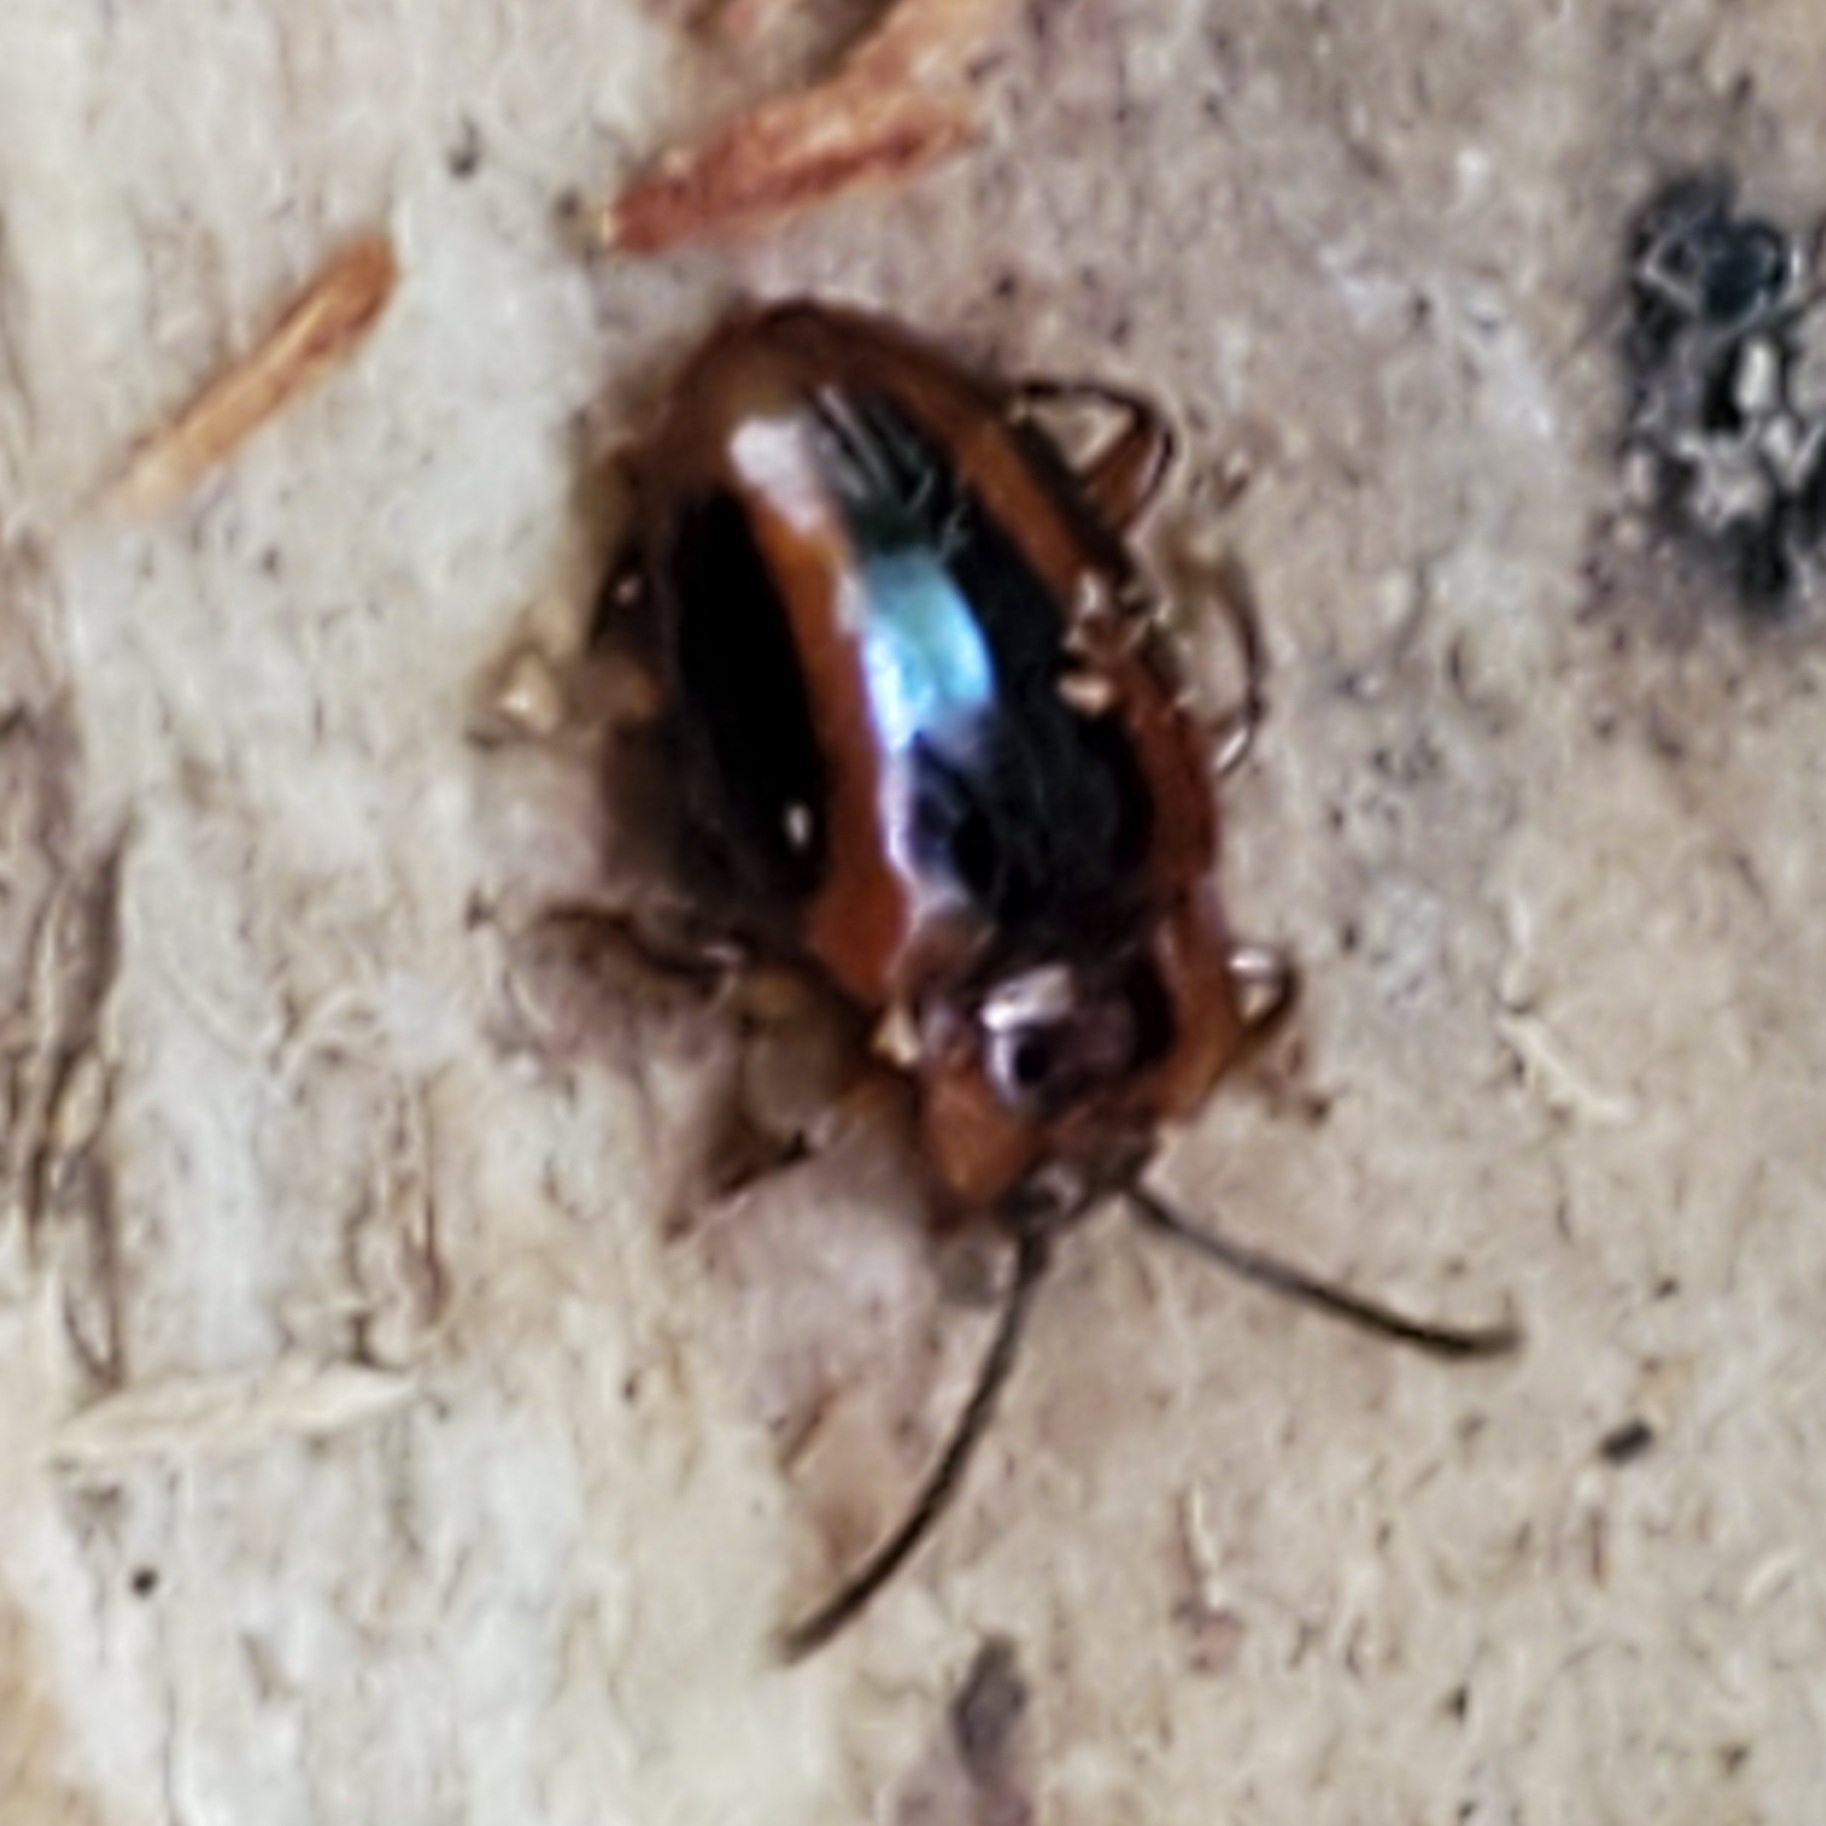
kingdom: Animalia
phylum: Arthropoda
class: Insecta
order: Coleoptera
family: Endomychidae
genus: Aphorista
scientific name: Aphorista vittata
